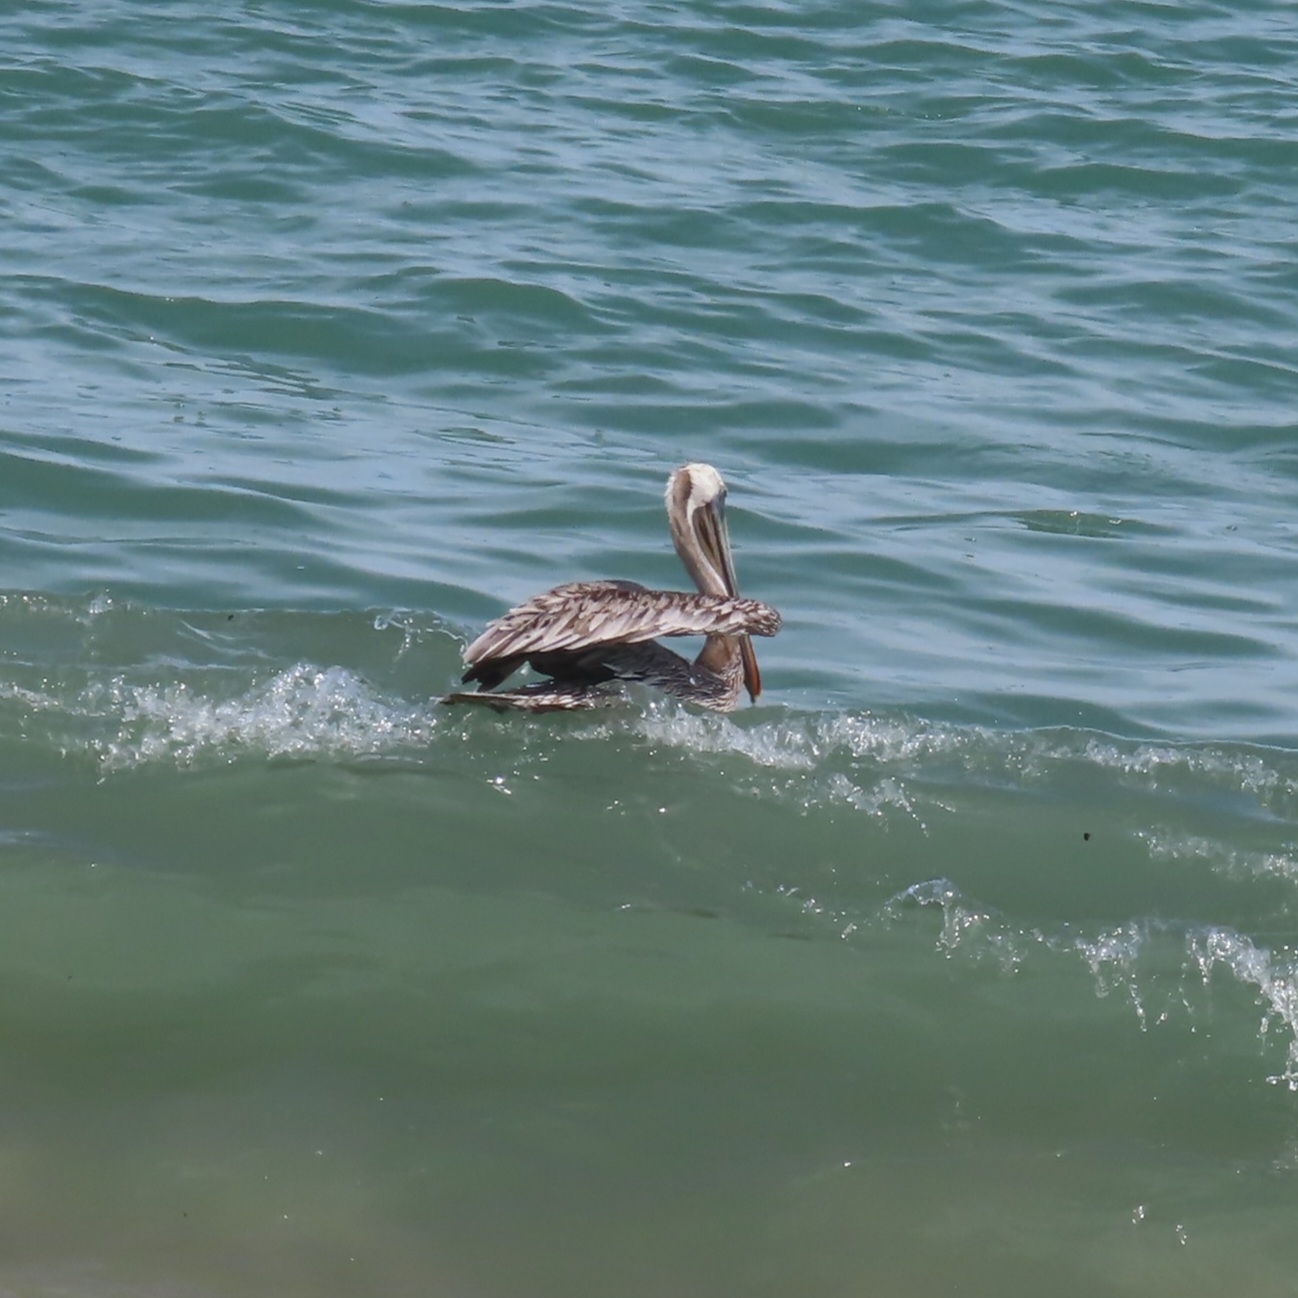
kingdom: Animalia
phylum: Chordata
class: Aves
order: Pelecaniformes
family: Pelecanidae
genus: Pelecanus
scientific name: Pelecanus occidentalis
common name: Brown pelican
